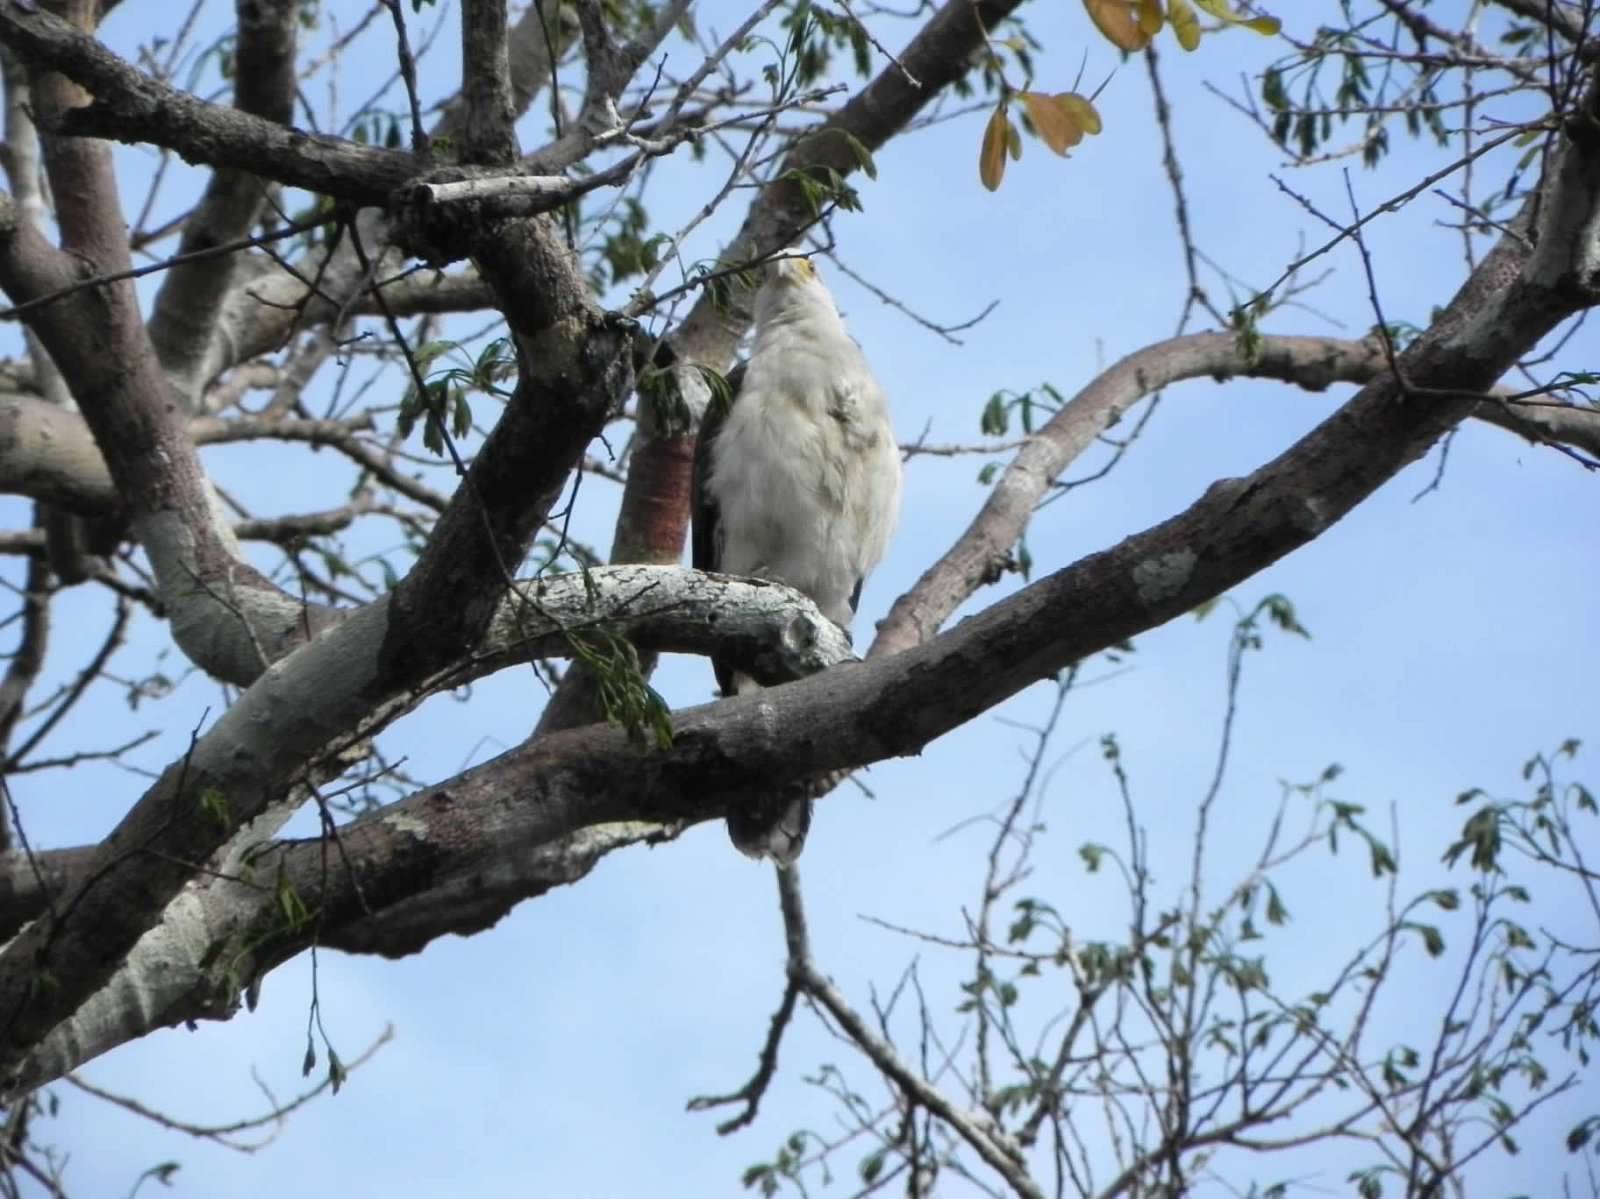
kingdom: Animalia
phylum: Chordata
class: Aves
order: Falconiformes
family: Falconidae
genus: Daptrius
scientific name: Daptrius
